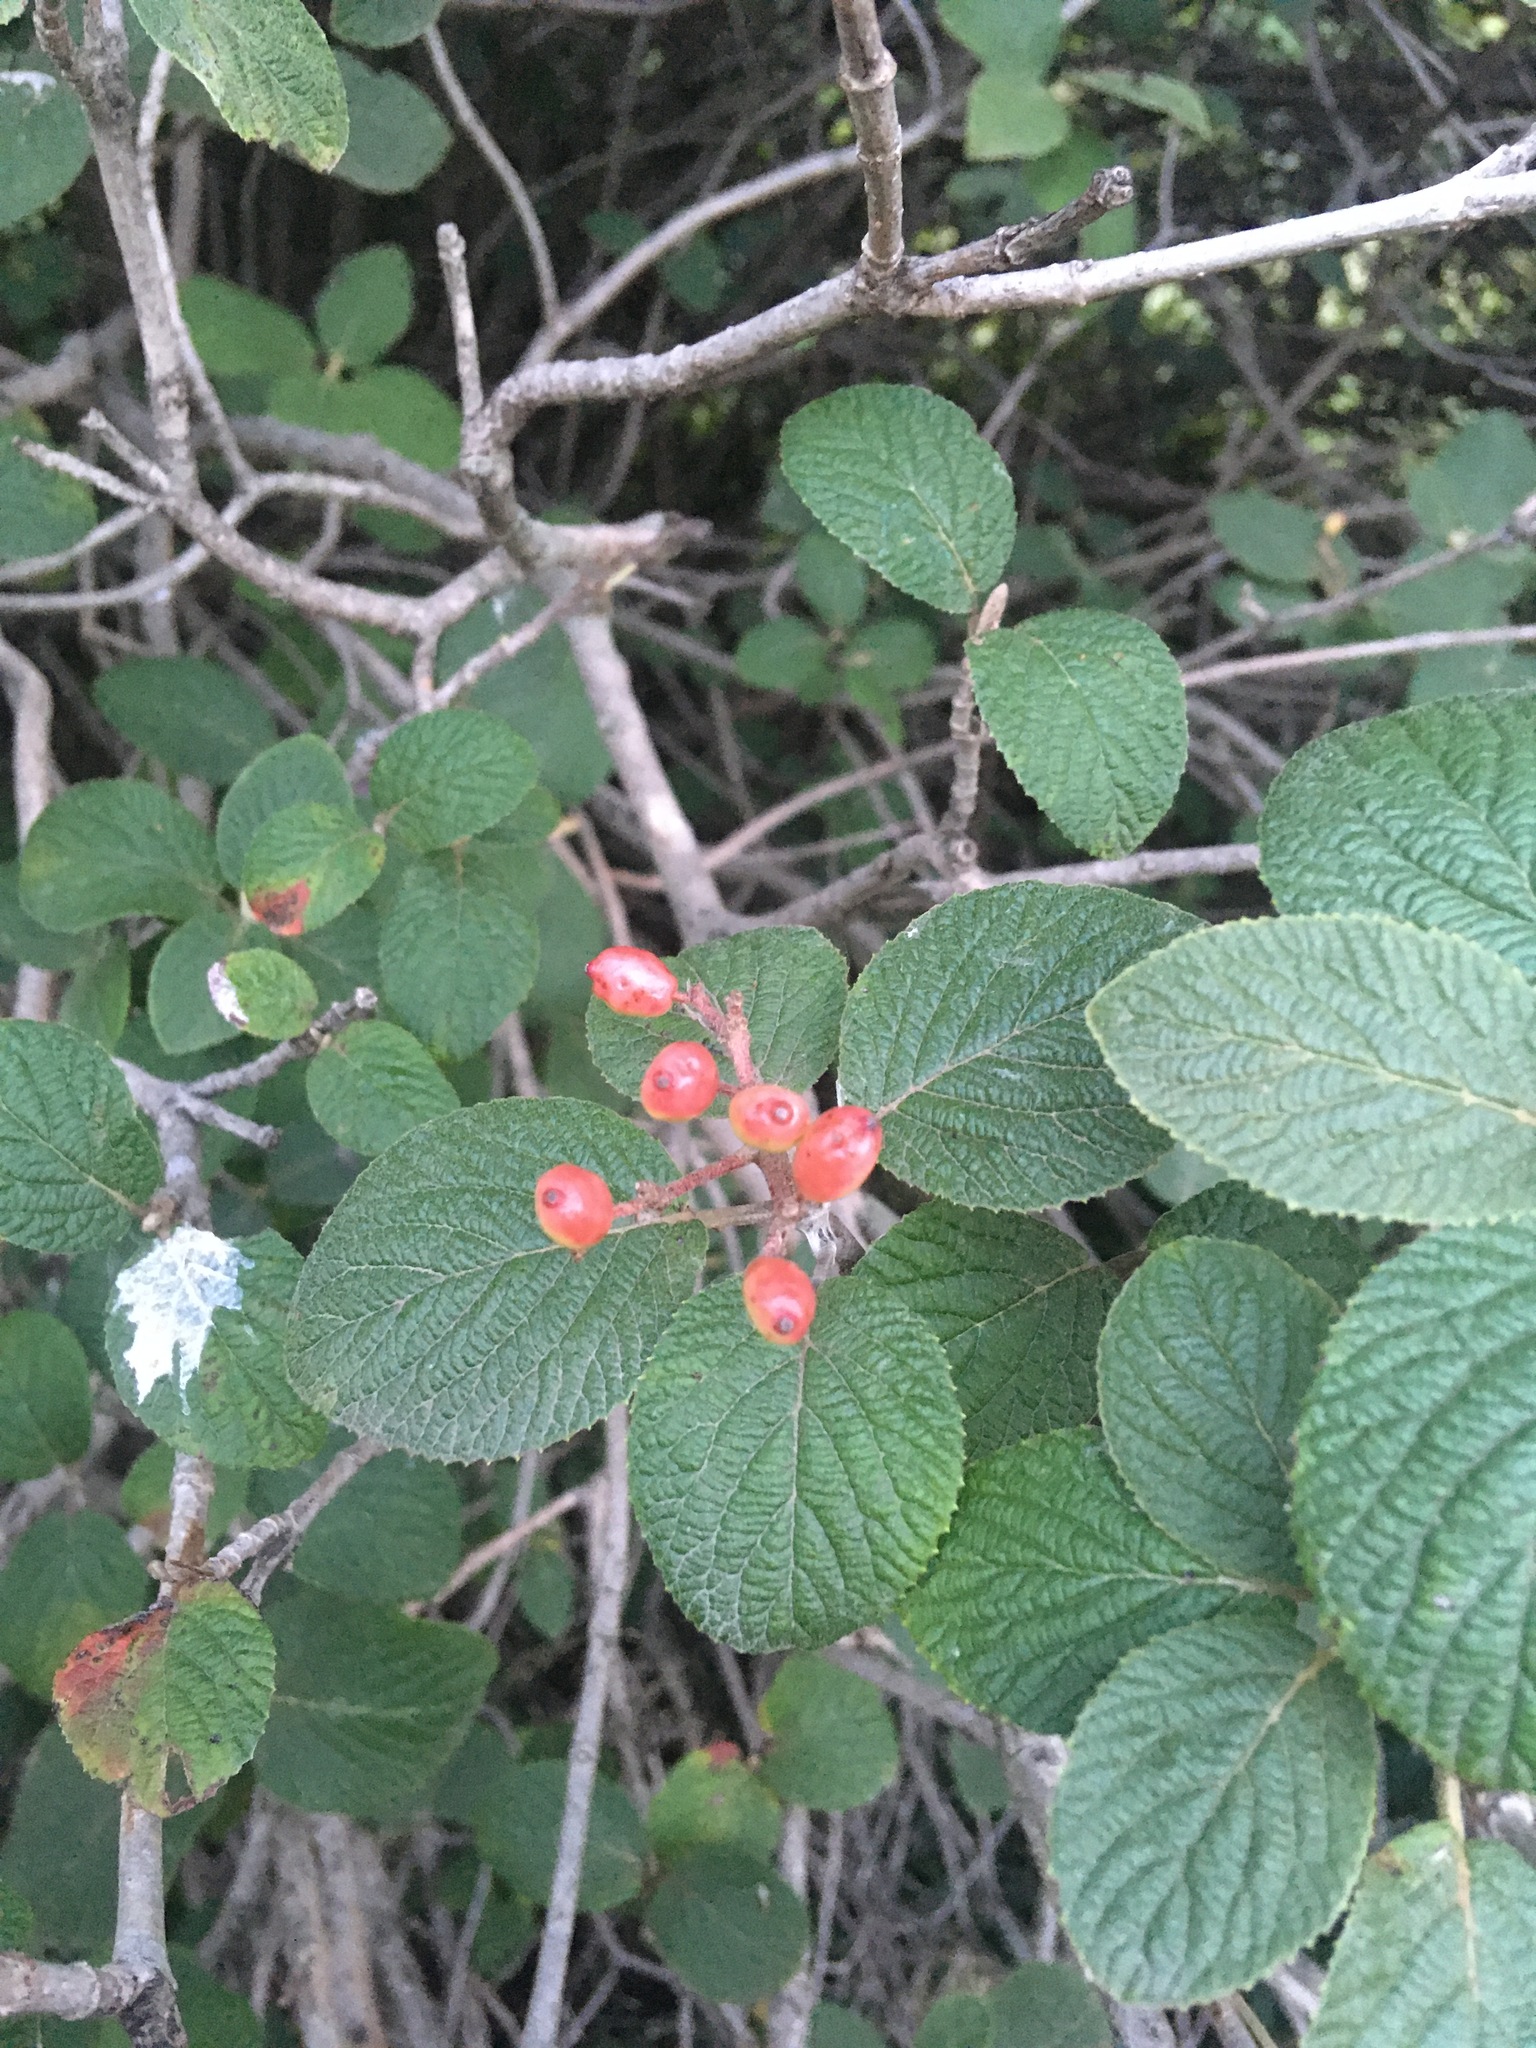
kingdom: Plantae
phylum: Tracheophyta
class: Magnoliopsida
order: Dipsacales
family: Viburnaceae
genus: Viburnum
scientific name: Viburnum lantana
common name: Wayfaring tree
